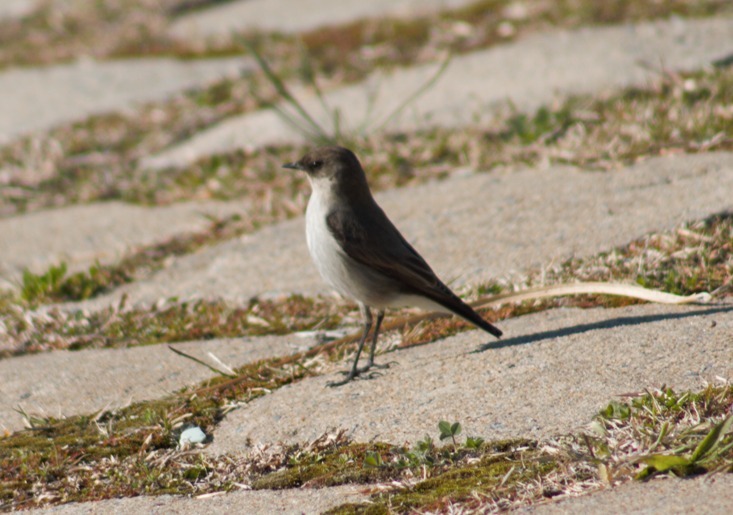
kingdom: Animalia
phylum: Chordata
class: Aves
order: Passeriformes
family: Tyrannidae
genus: Muscisaxicola
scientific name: Muscisaxicola maclovianus
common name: Dark-faced ground tyrant
